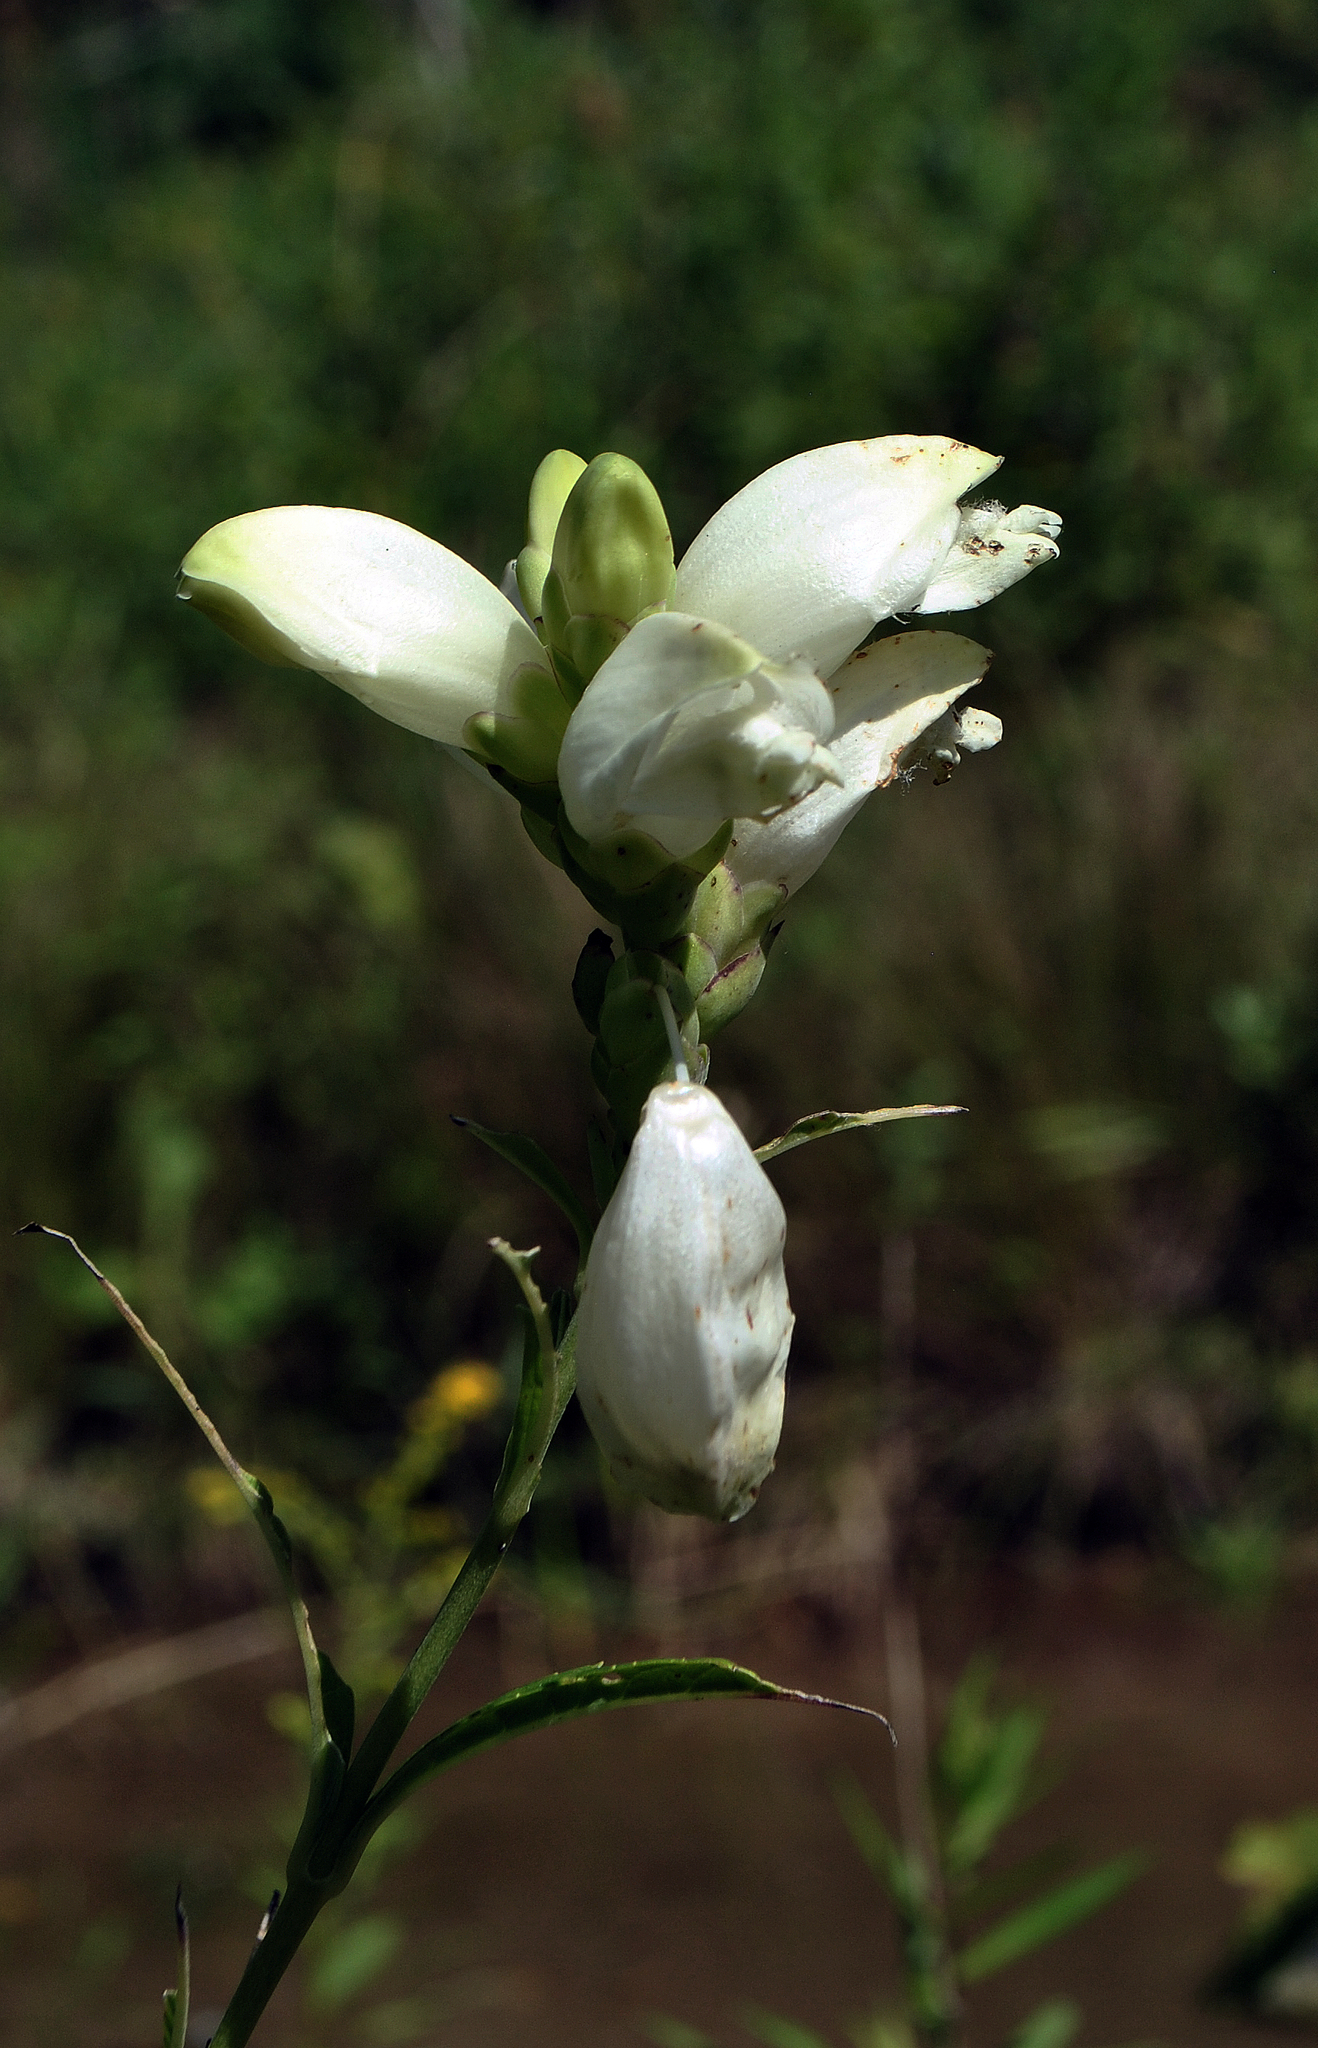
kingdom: Plantae
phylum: Tracheophyta
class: Magnoliopsida
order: Lamiales
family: Plantaginaceae
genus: Chelone
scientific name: Chelone glabra
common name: Snakehead
